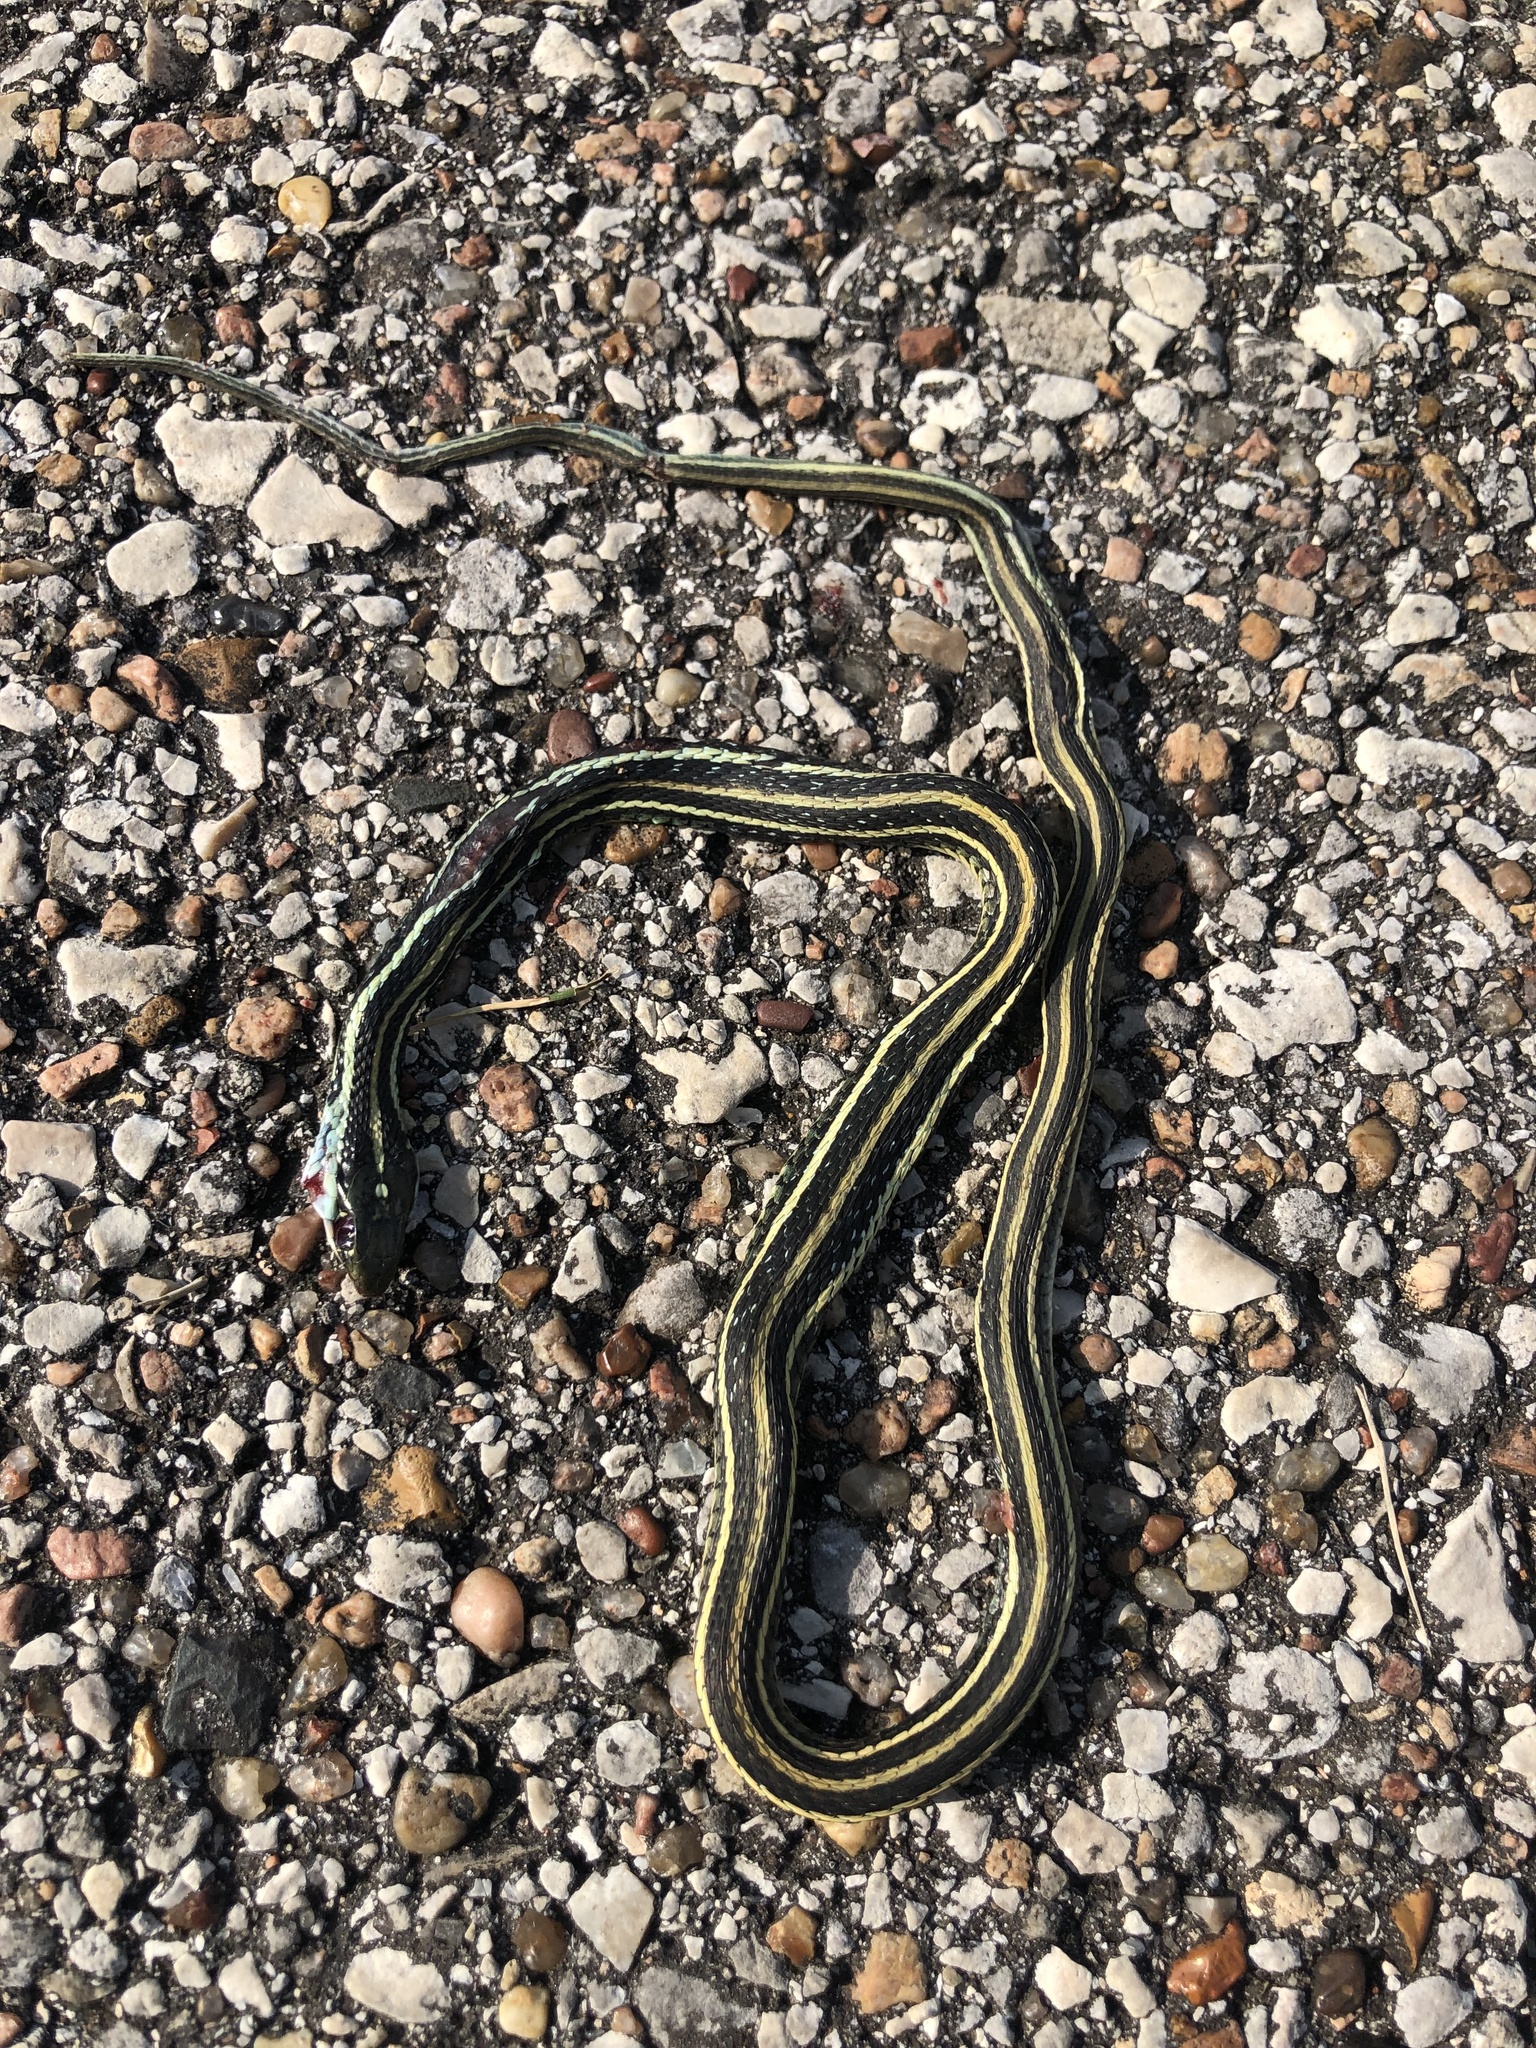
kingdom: Animalia
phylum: Chordata
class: Squamata
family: Colubridae
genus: Thamnophis
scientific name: Thamnophis proximus
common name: Western ribbon snake
